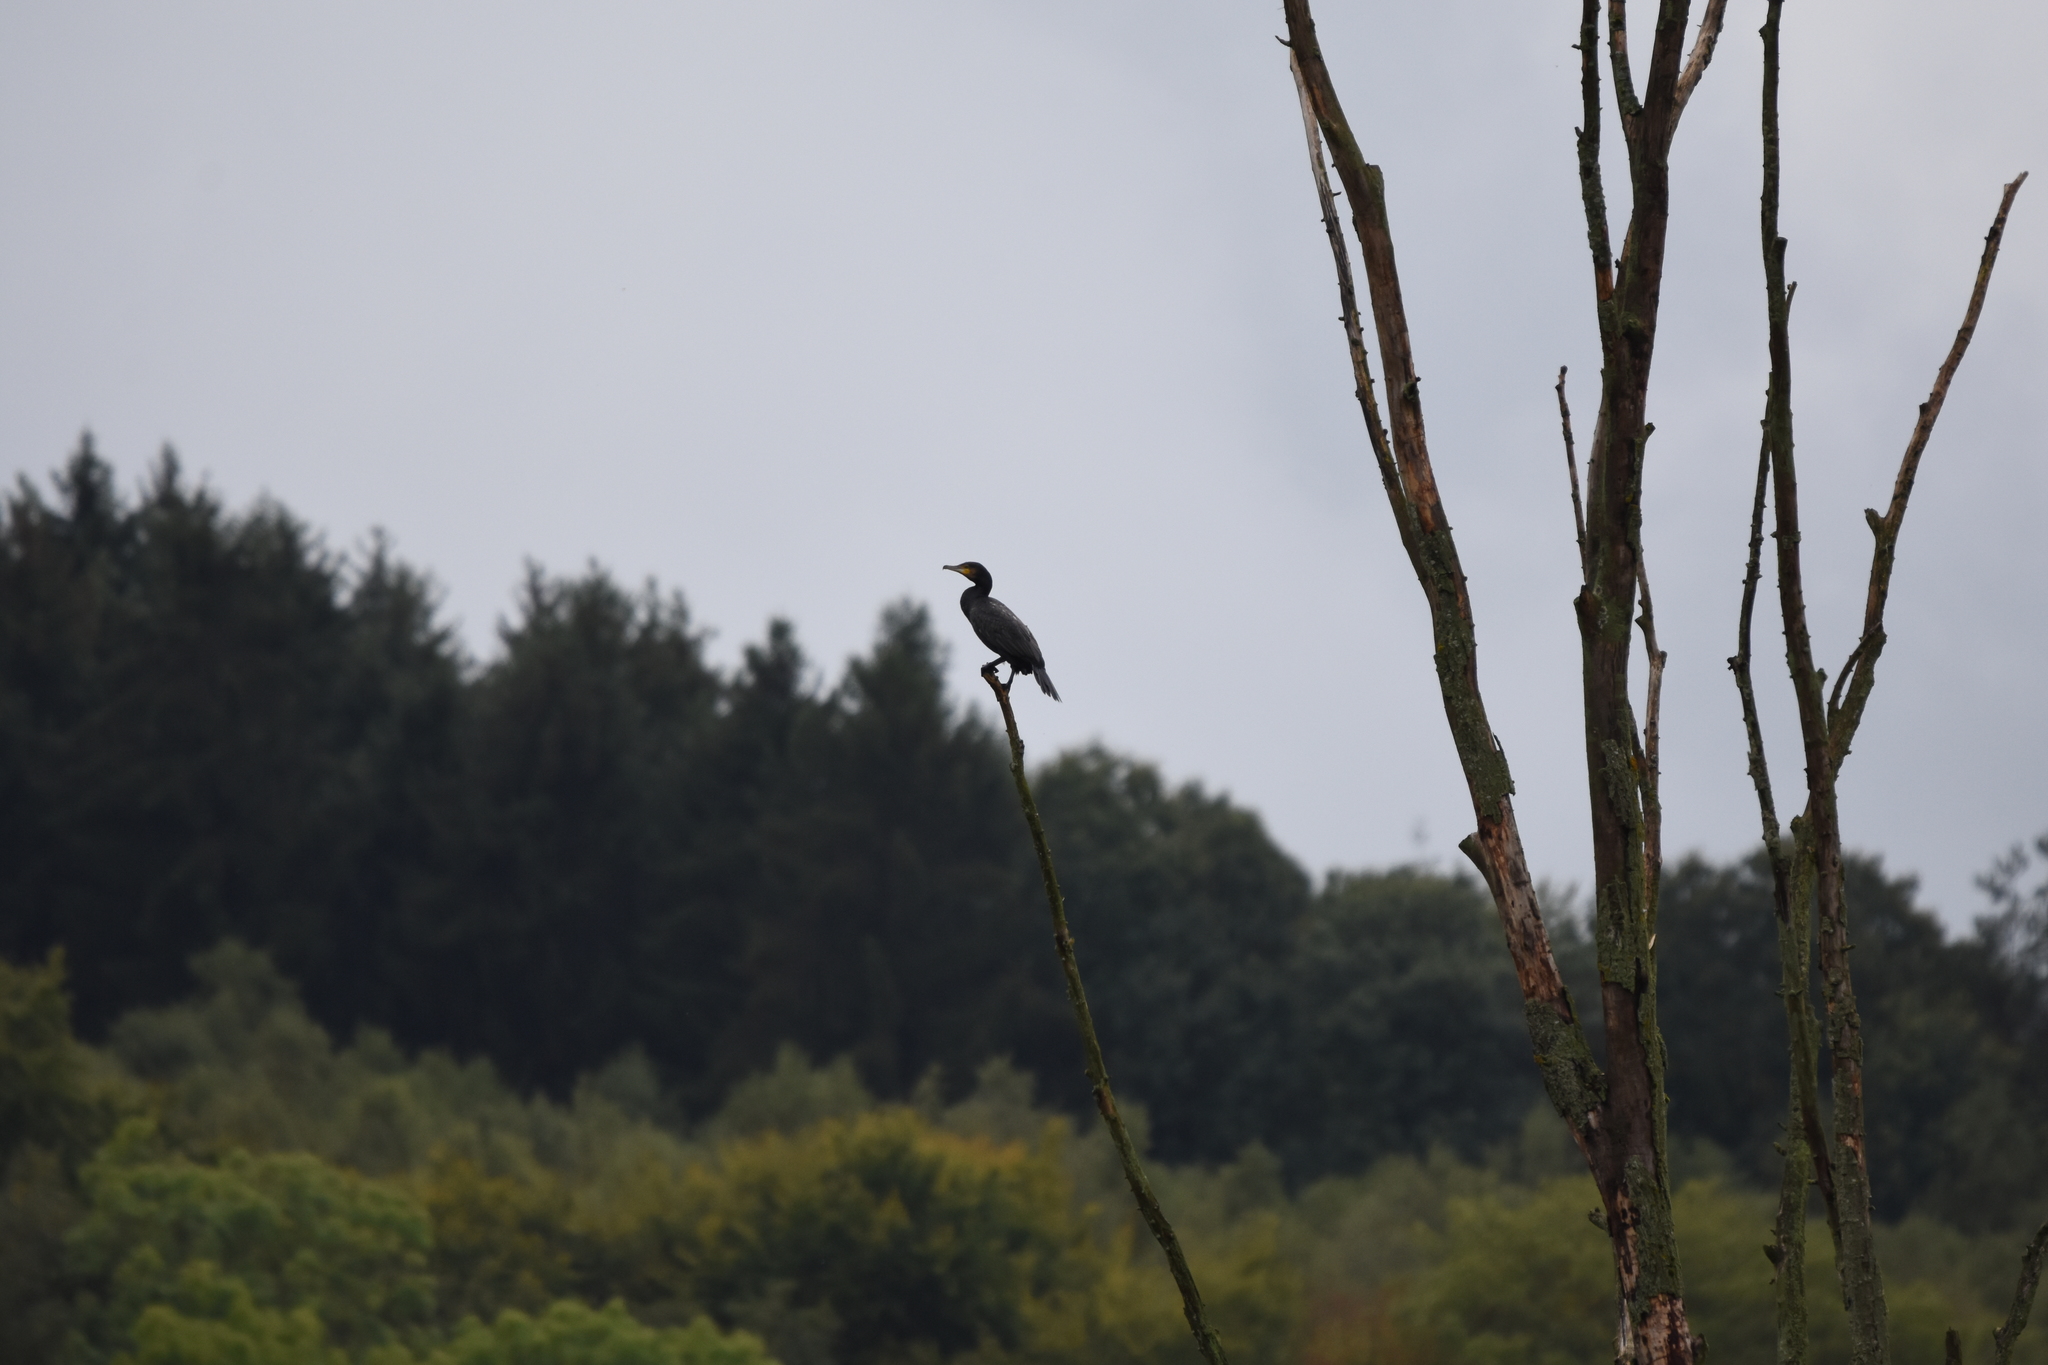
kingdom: Animalia
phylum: Chordata
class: Aves
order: Suliformes
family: Phalacrocoracidae
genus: Phalacrocorax
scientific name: Phalacrocorax carbo
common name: Great cormorant
